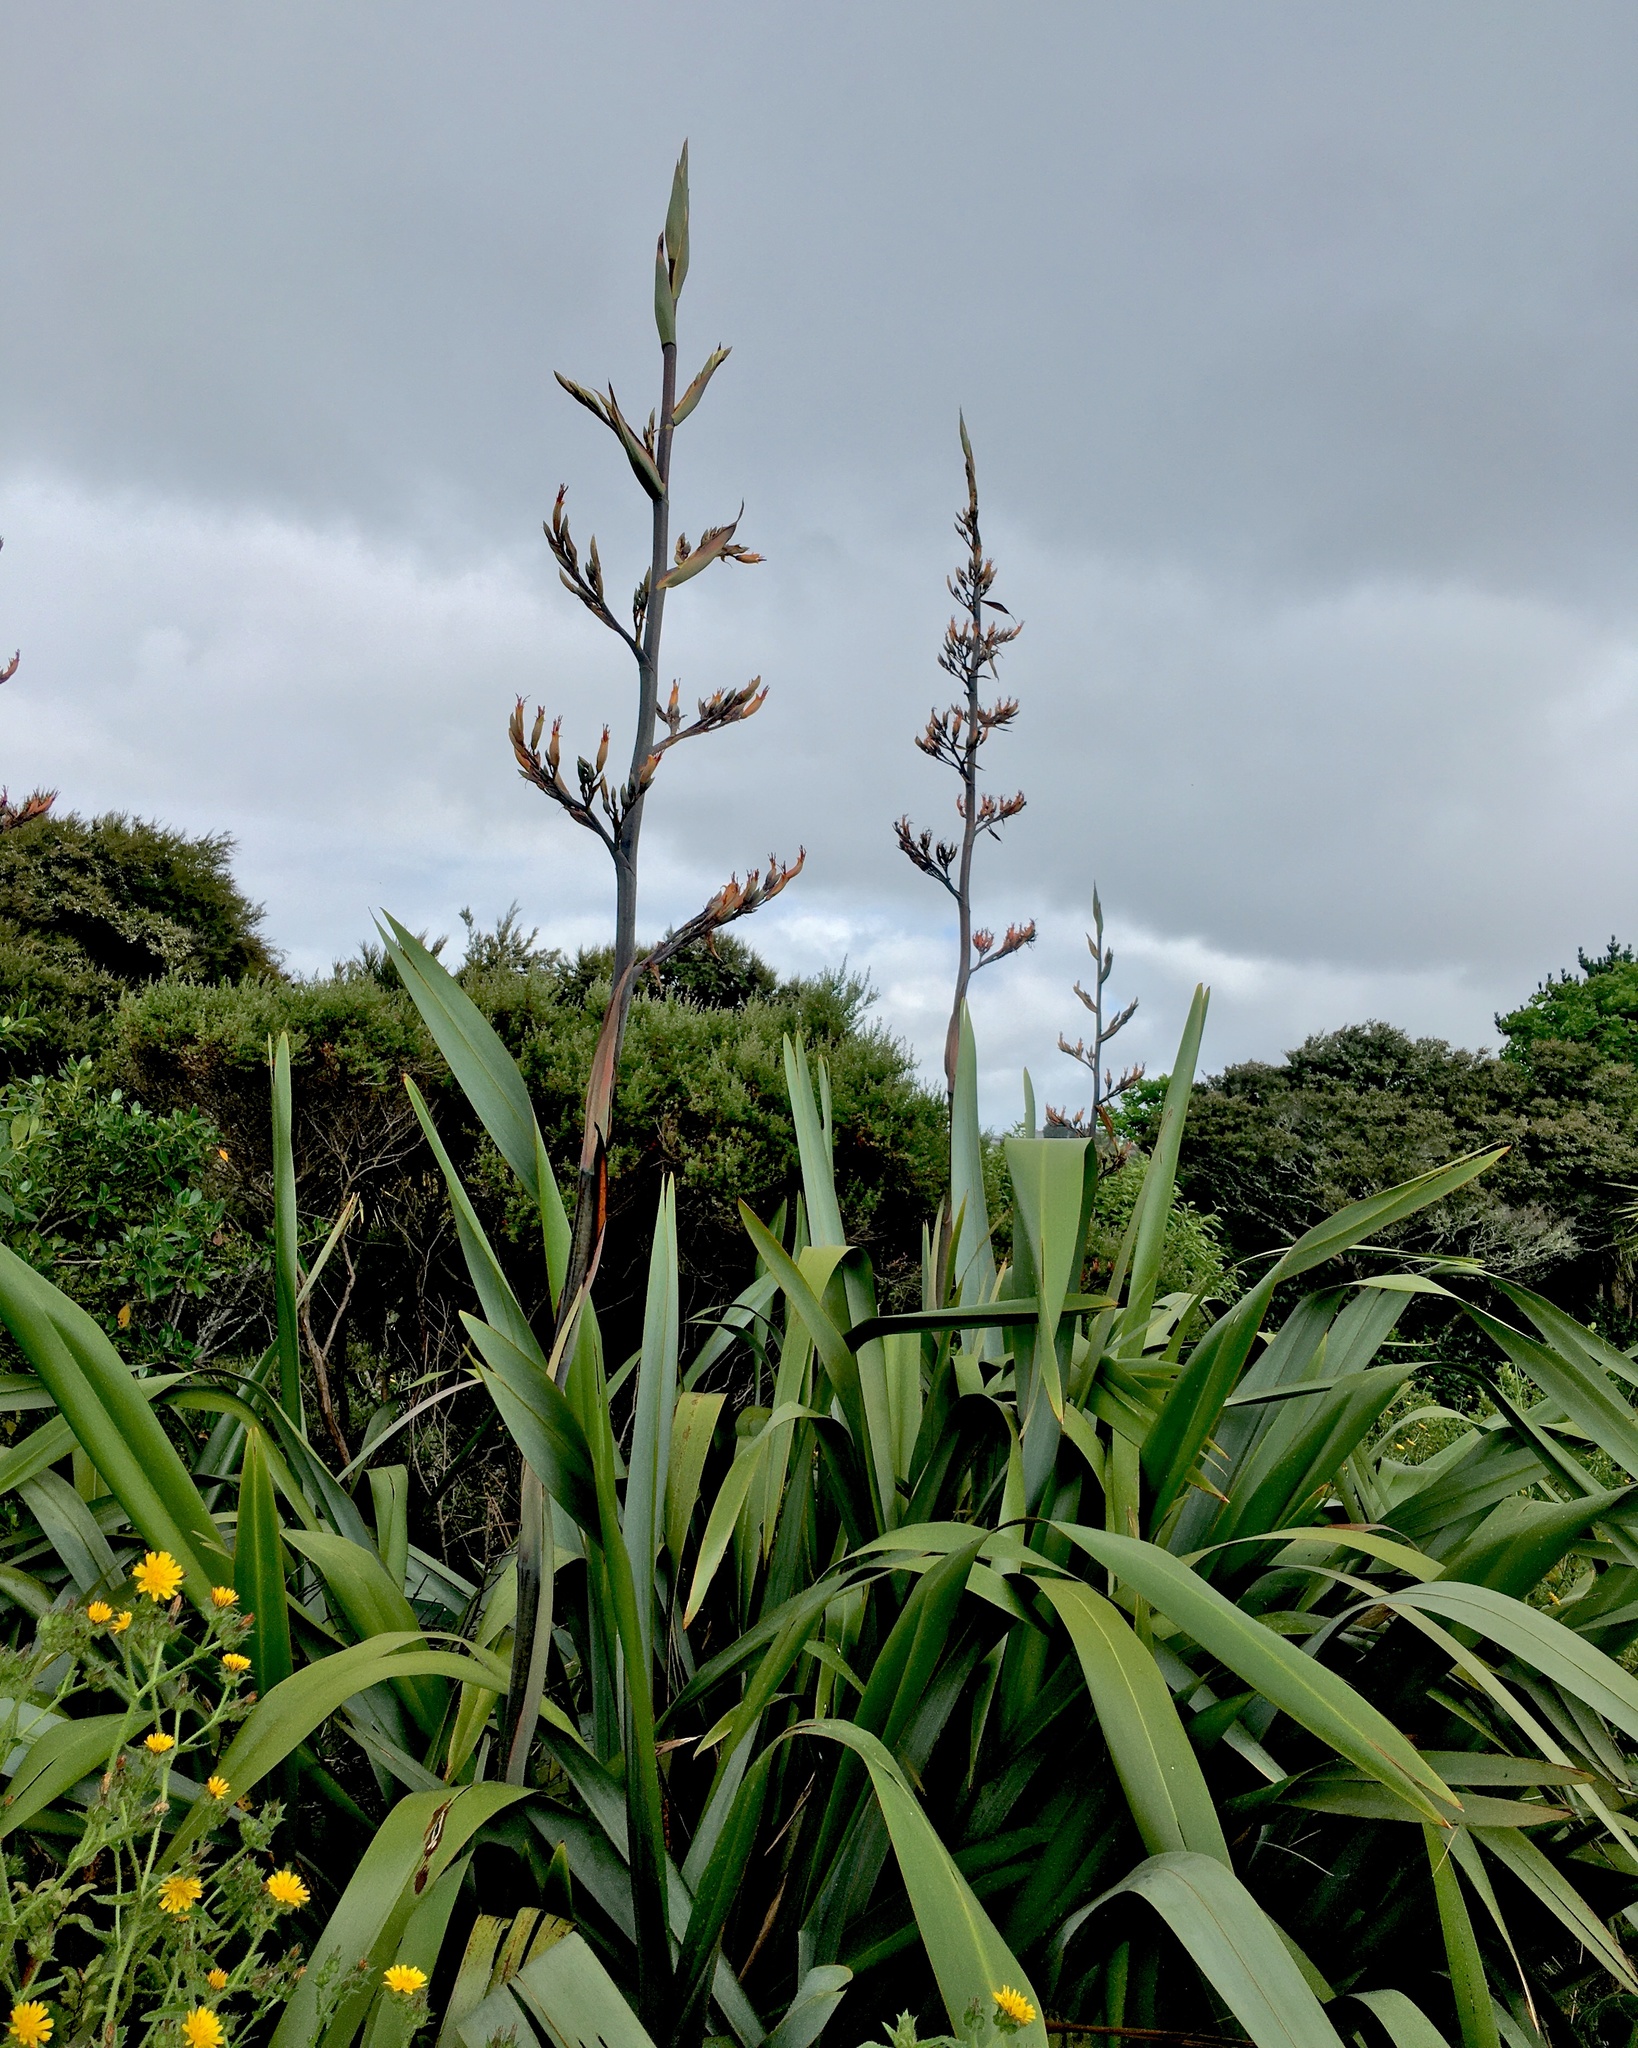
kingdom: Plantae
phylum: Tracheophyta
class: Liliopsida
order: Asparagales
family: Asphodelaceae
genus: Phormium
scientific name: Phormium tenax
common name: New zealand flax
